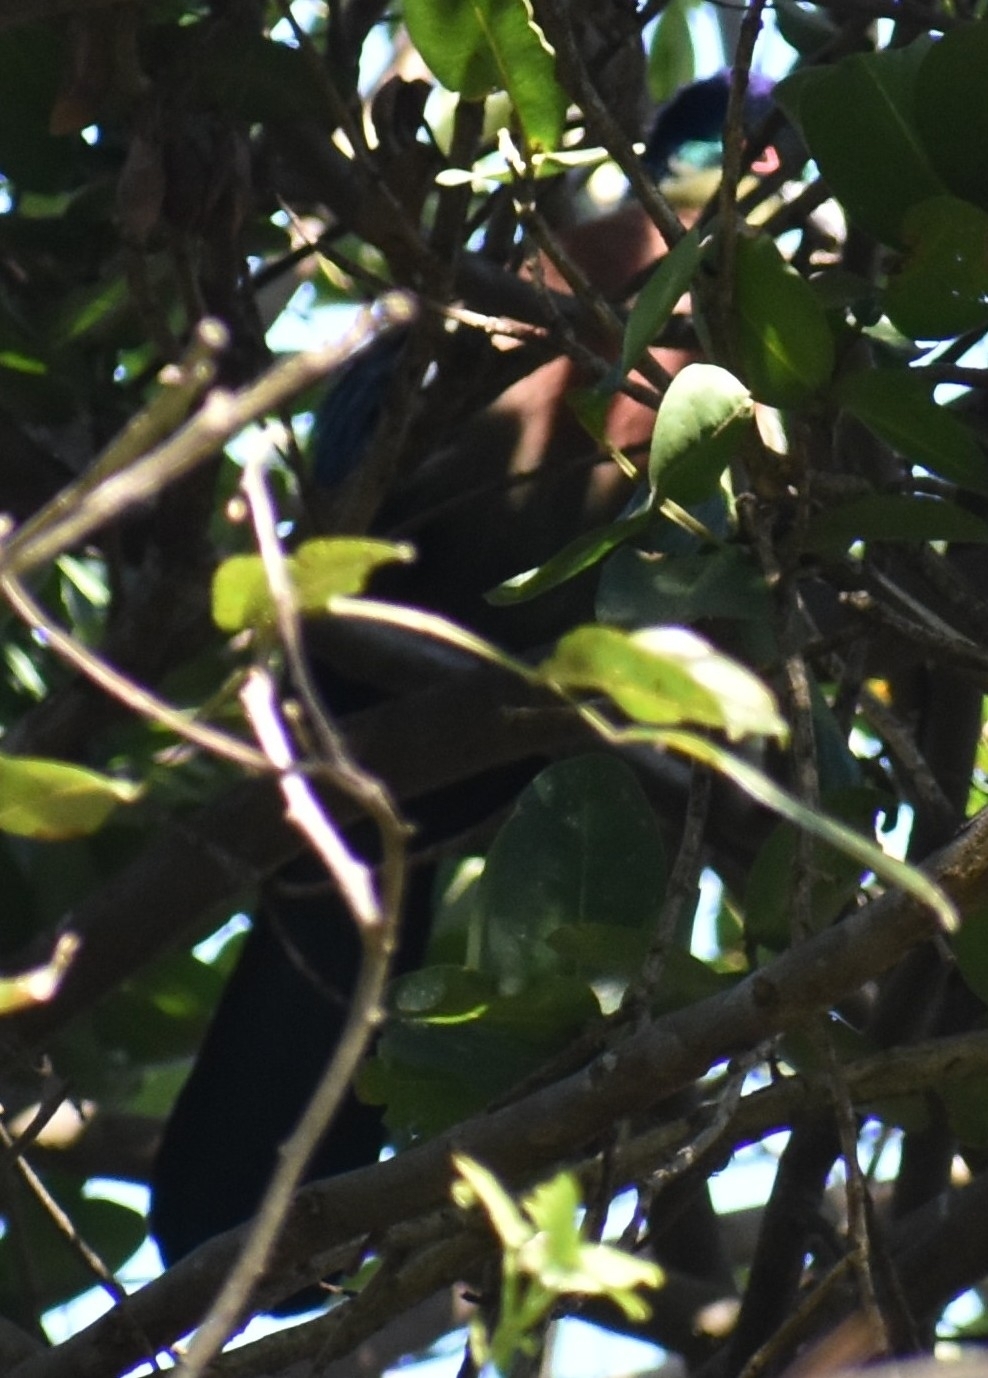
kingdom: Animalia
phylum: Chordata
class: Aves
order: Musophagiformes
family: Musophagidae
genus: Tauraco
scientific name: Tauraco porphyreolophus
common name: Purple-crested turaco
